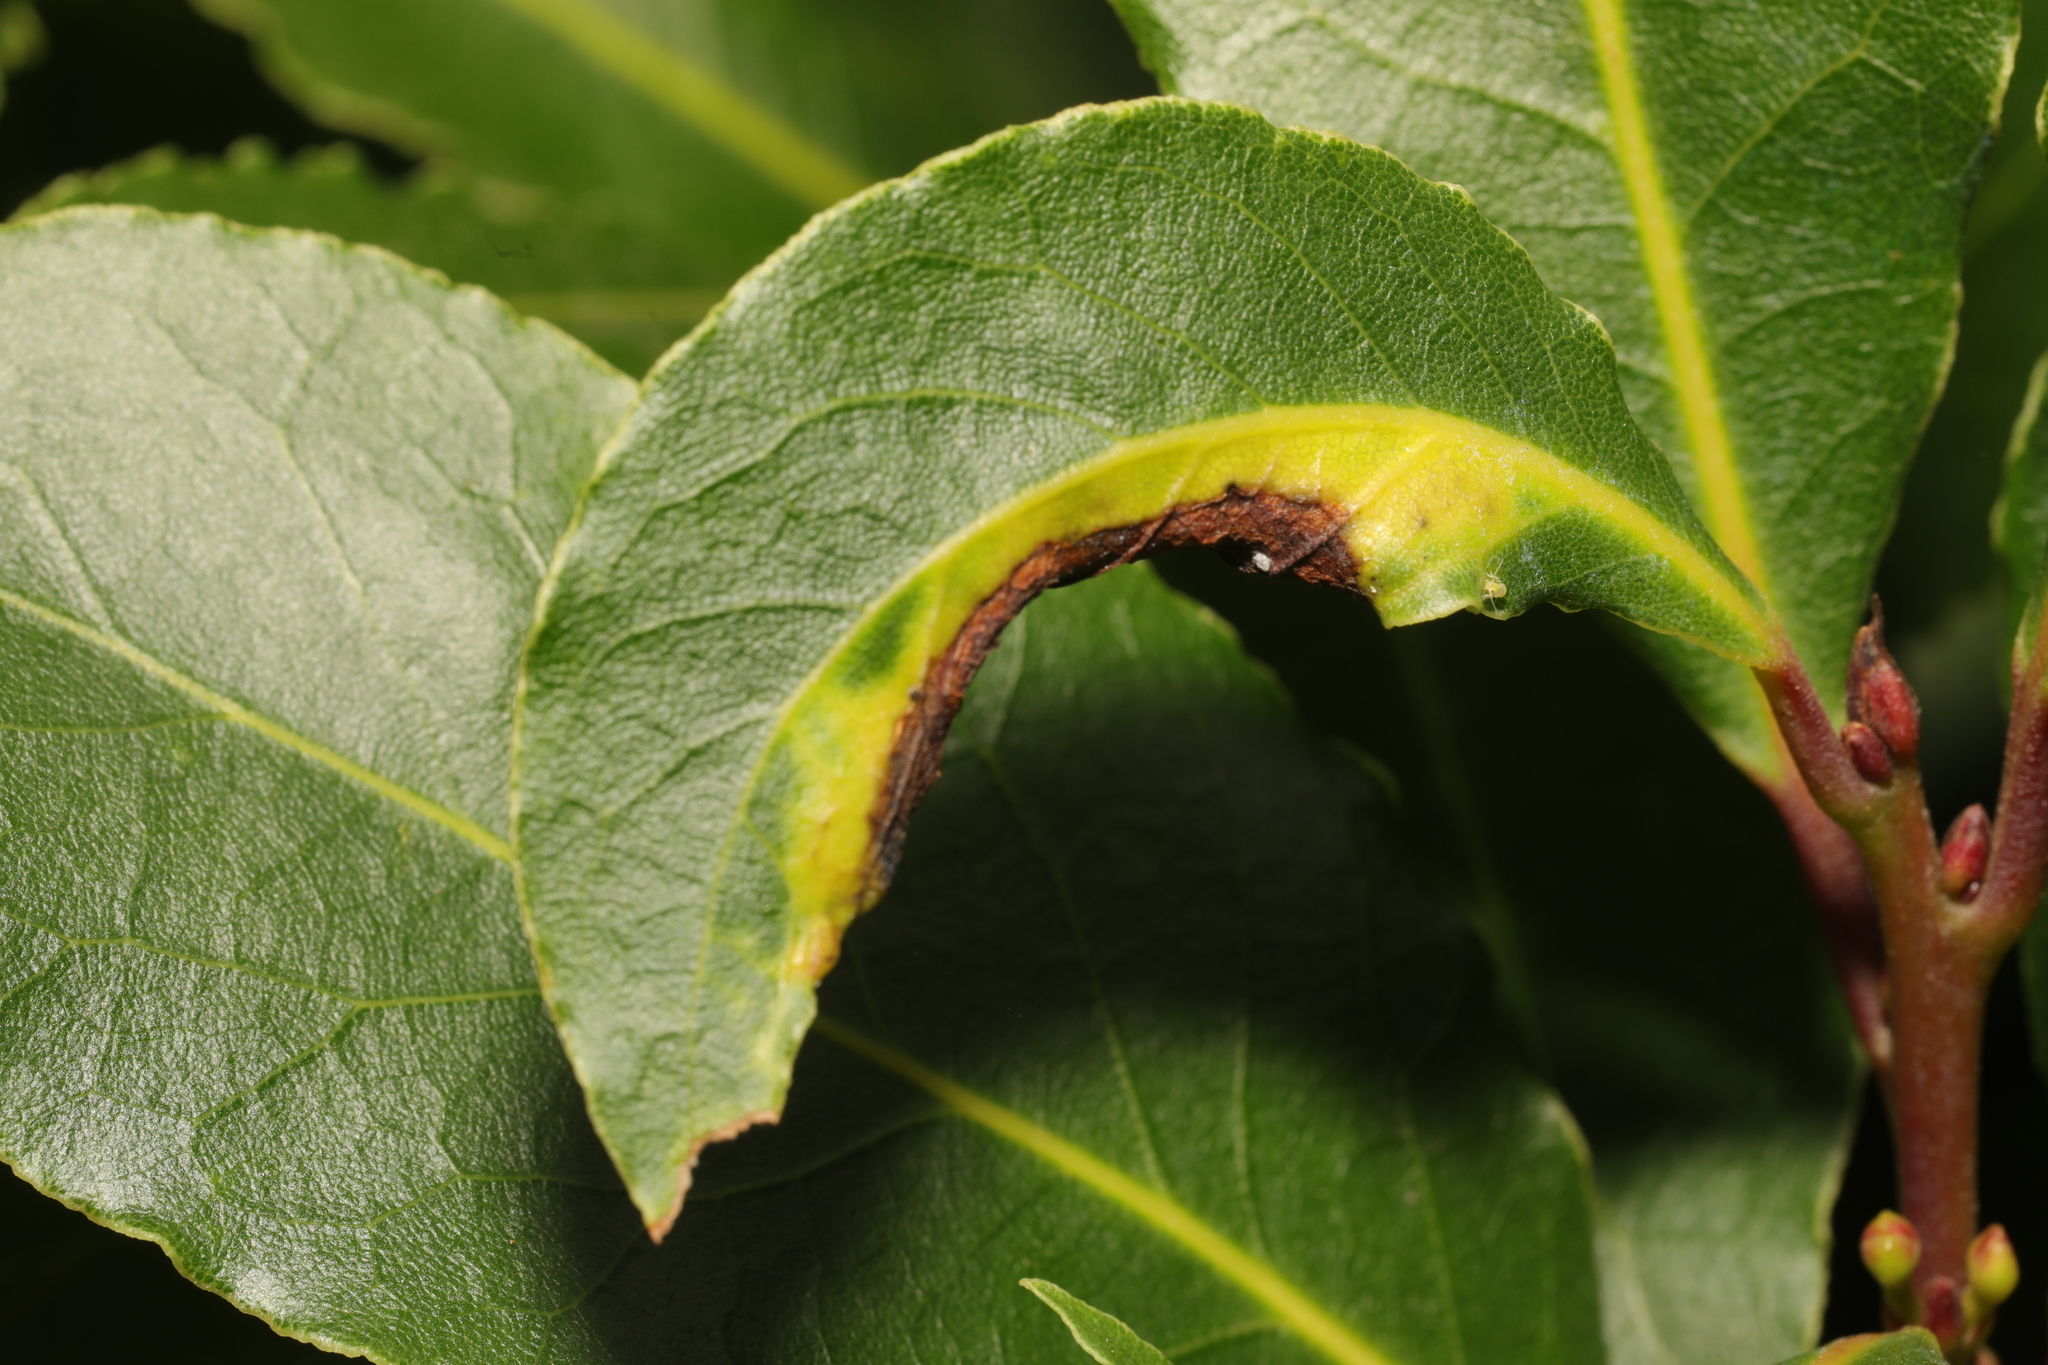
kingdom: Animalia
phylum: Arthropoda
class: Insecta
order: Hemiptera
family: Triozidae
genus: Lauritrioza
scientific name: Lauritrioza alacris
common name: Laurel psyllid
